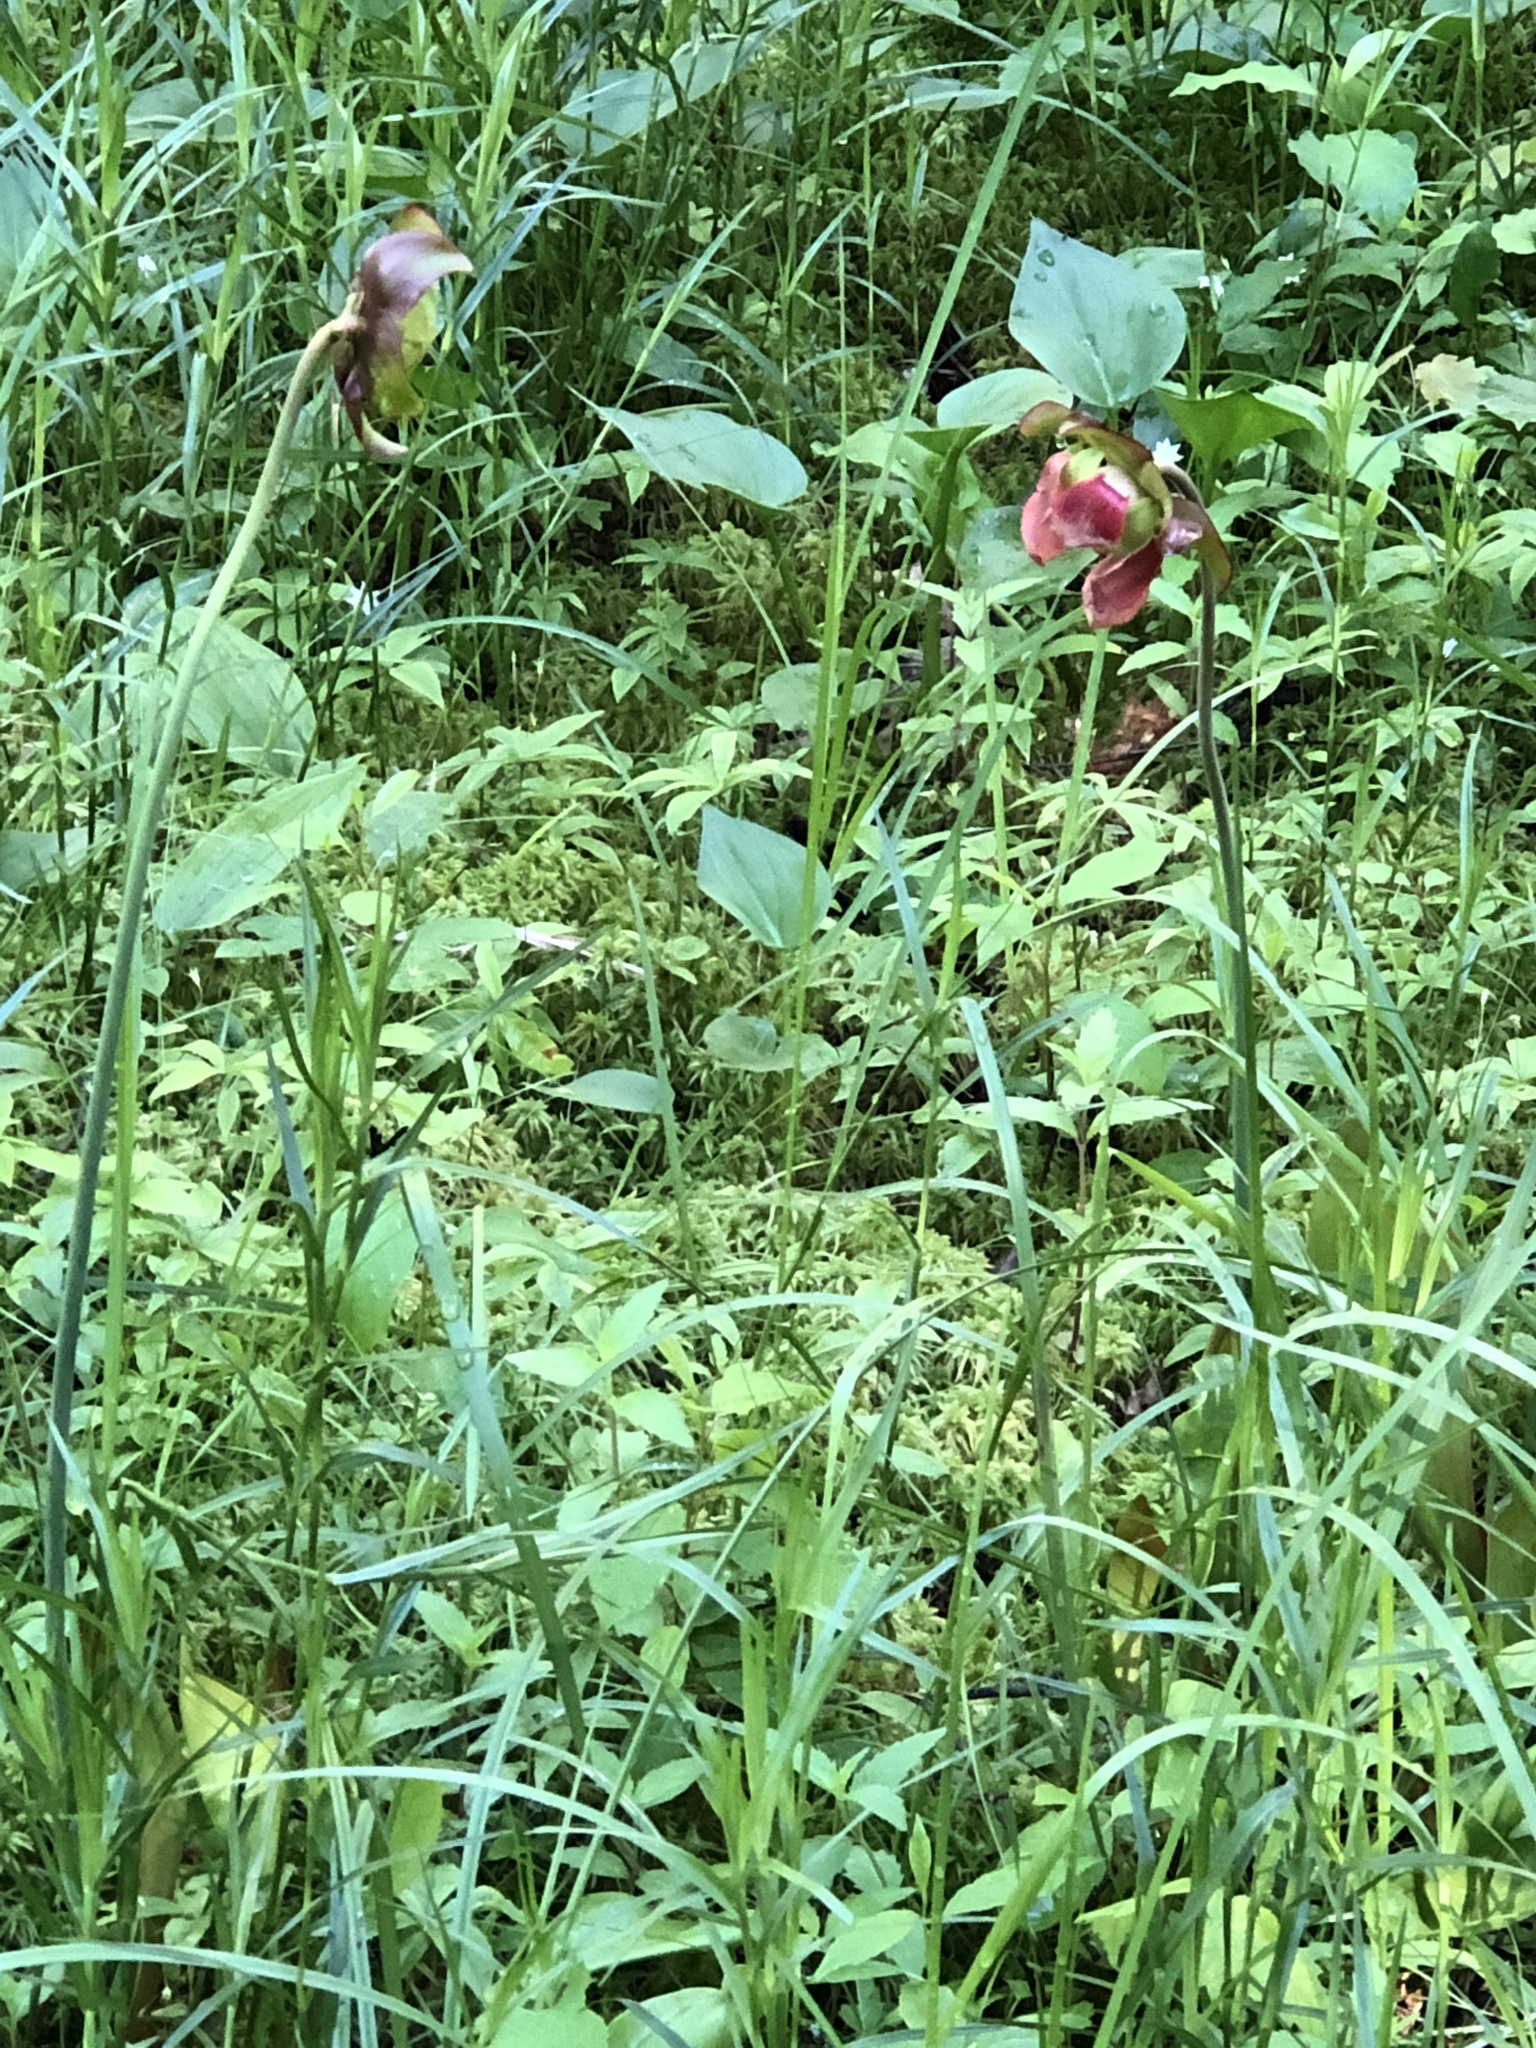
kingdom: Plantae
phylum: Tracheophyta
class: Magnoliopsida
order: Ericales
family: Sarraceniaceae
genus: Sarracenia
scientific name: Sarracenia purpurea
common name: Pitcherplant
